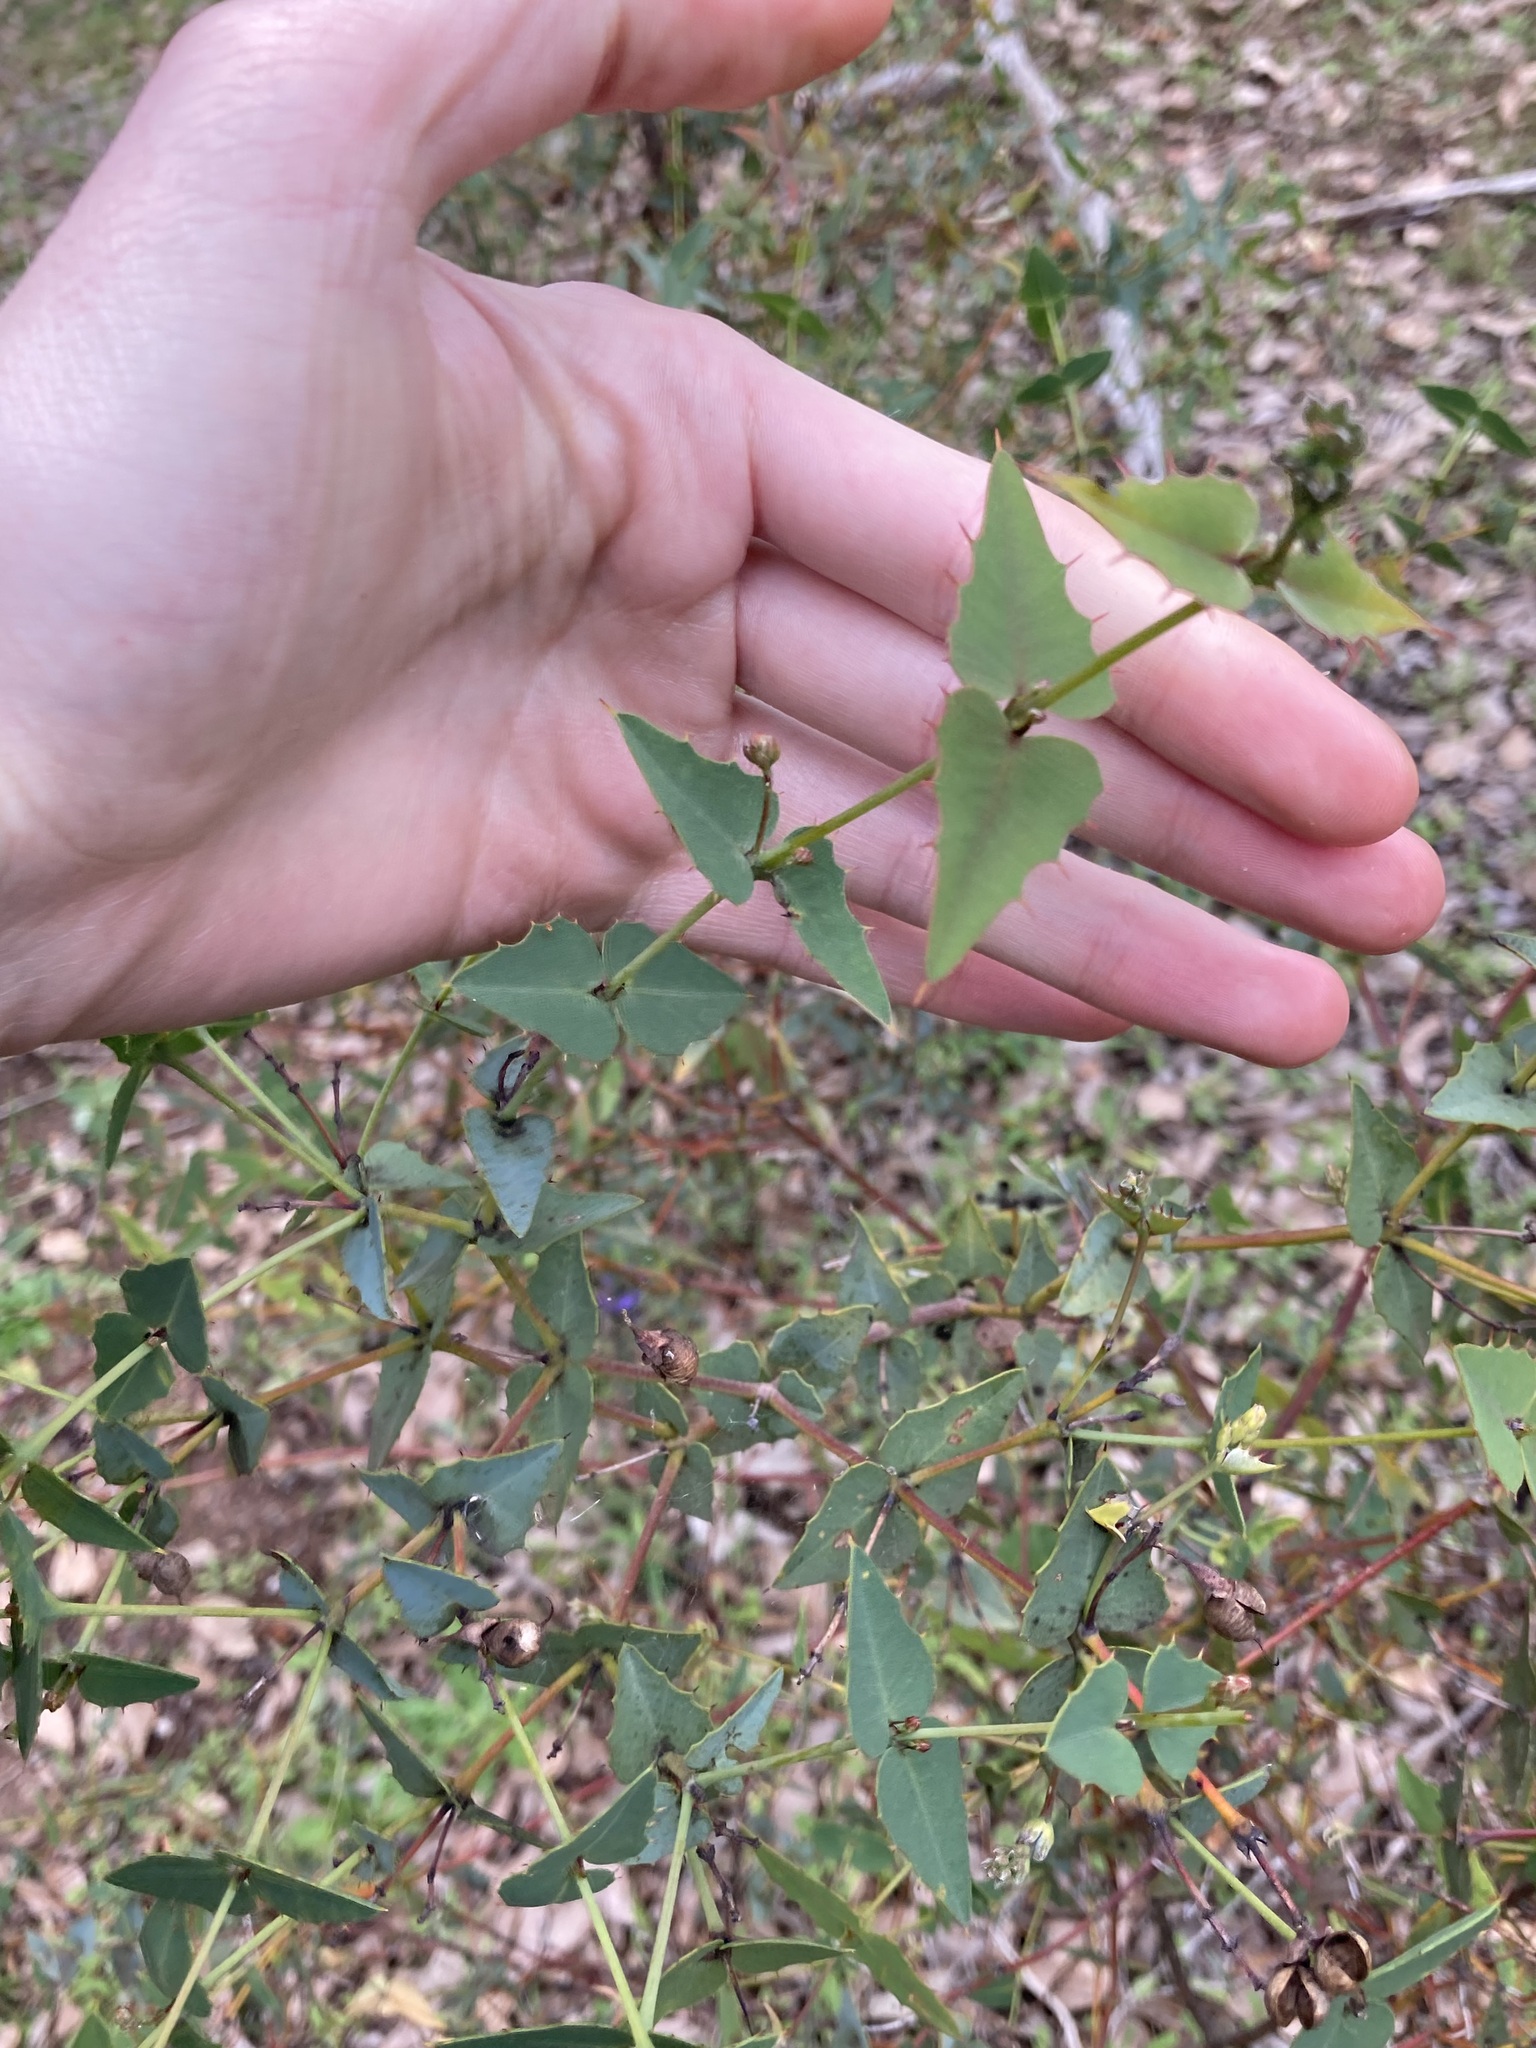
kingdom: Plantae
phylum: Tracheophyta
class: Magnoliopsida
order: Fabales
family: Fabaceae
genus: Gastrolobium
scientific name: Gastrolobium spinosum
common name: Prickly poison
